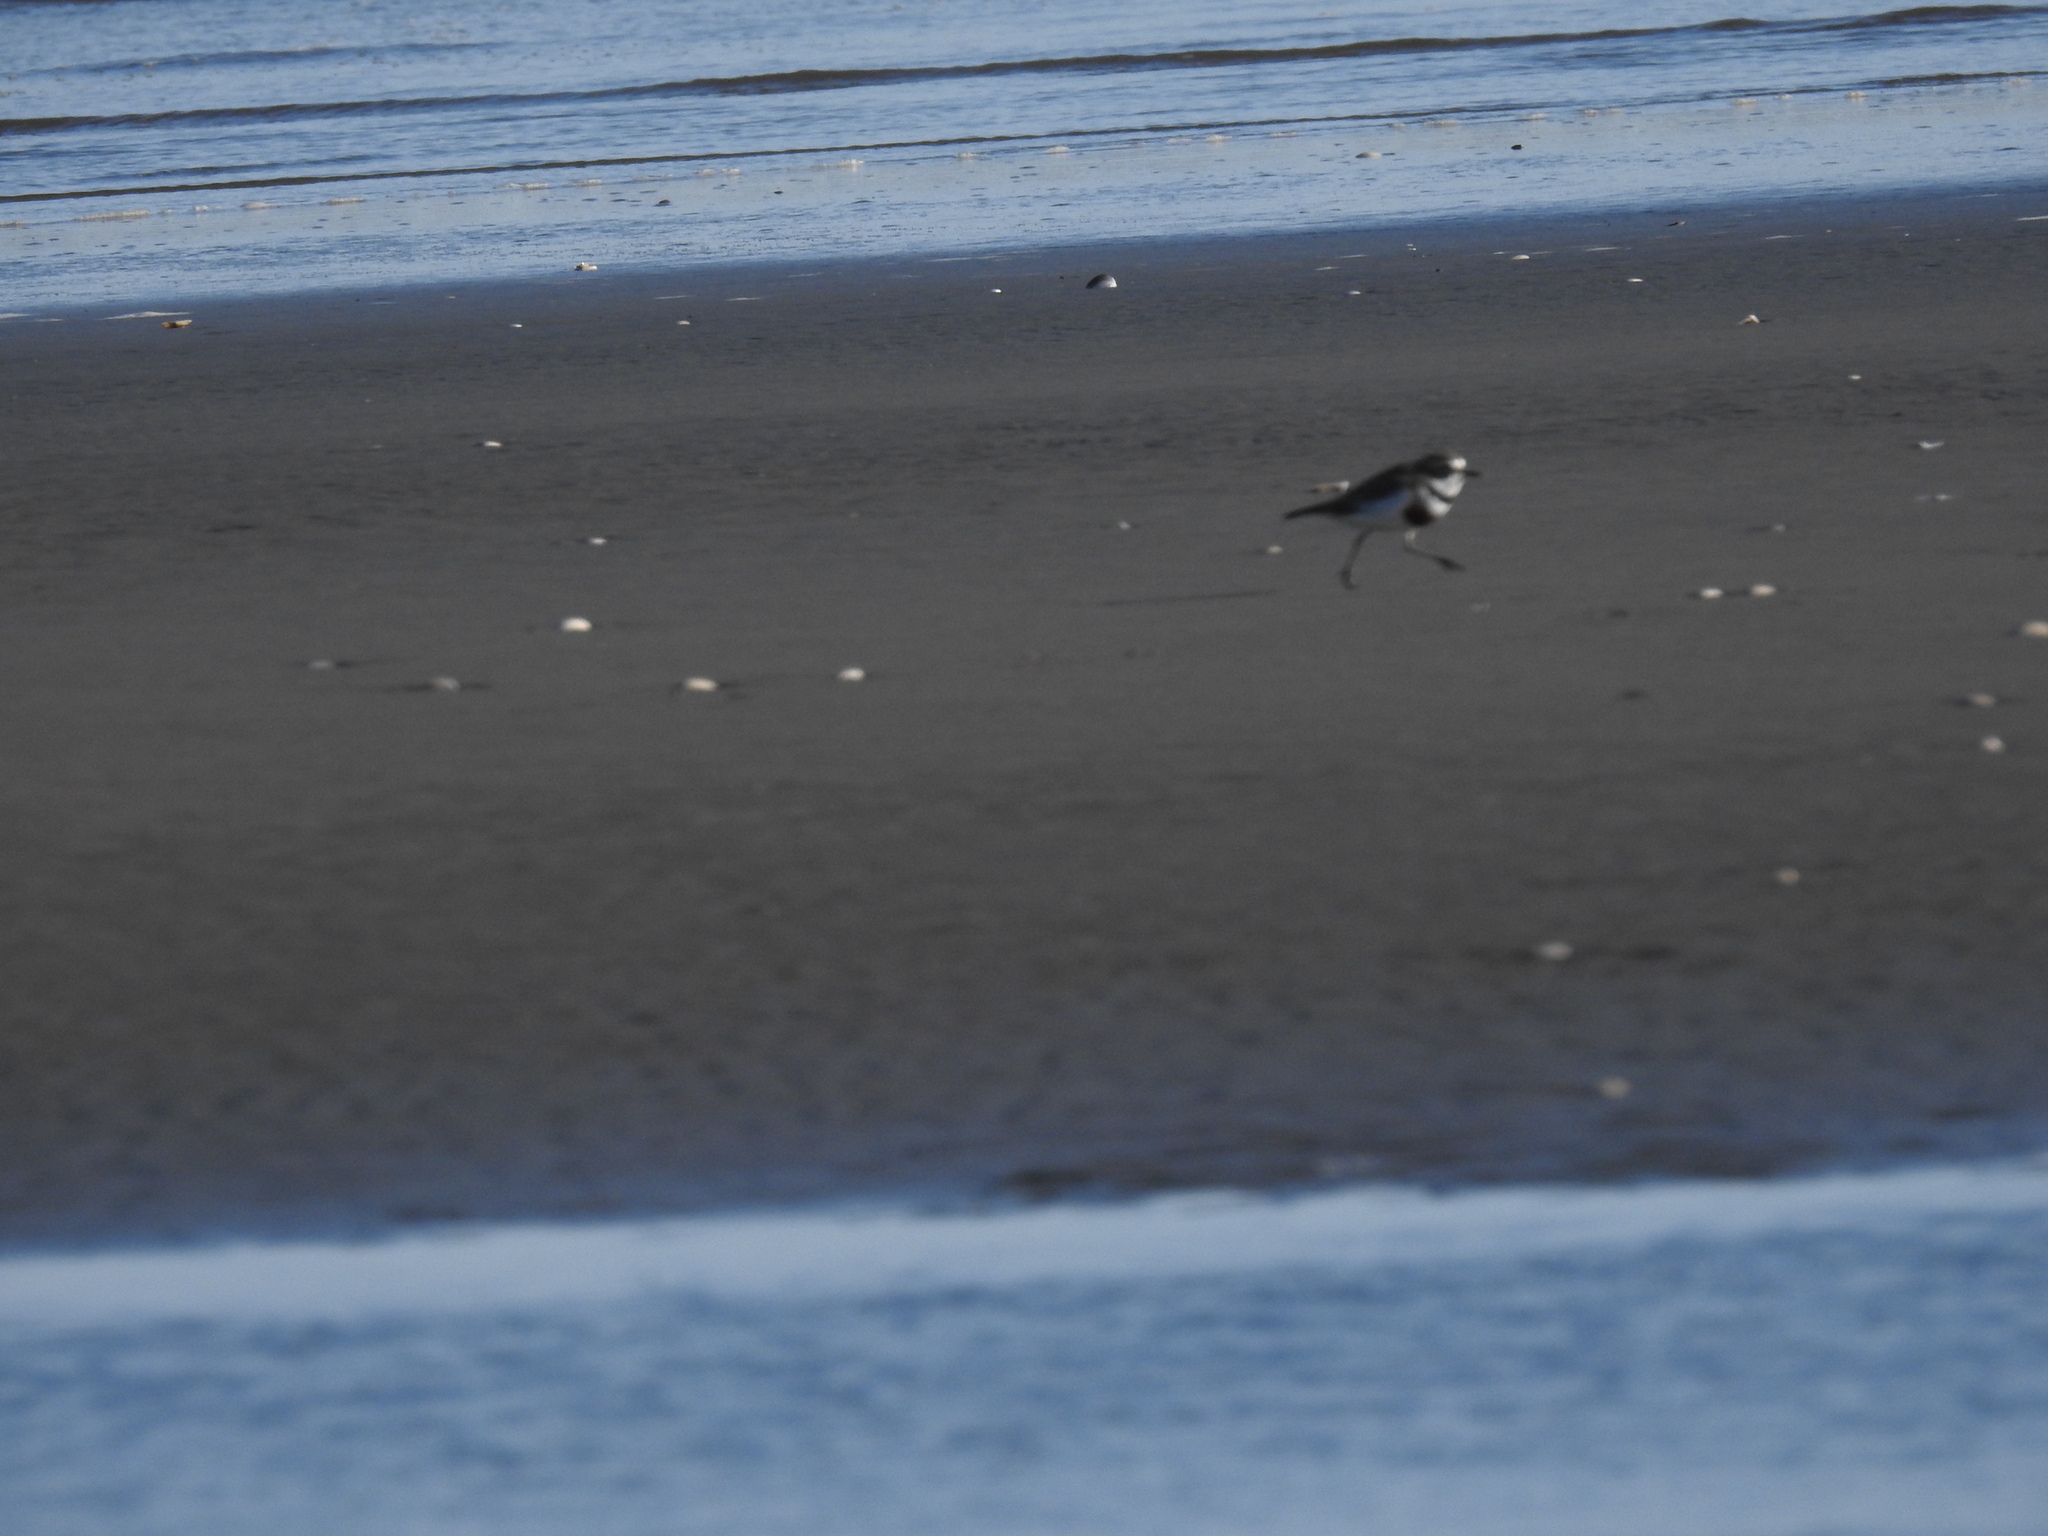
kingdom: Animalia
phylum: Chordata
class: Aves
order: Charadriiformes
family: Charadriidae
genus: Anarhynchus
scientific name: Anarhynchus
